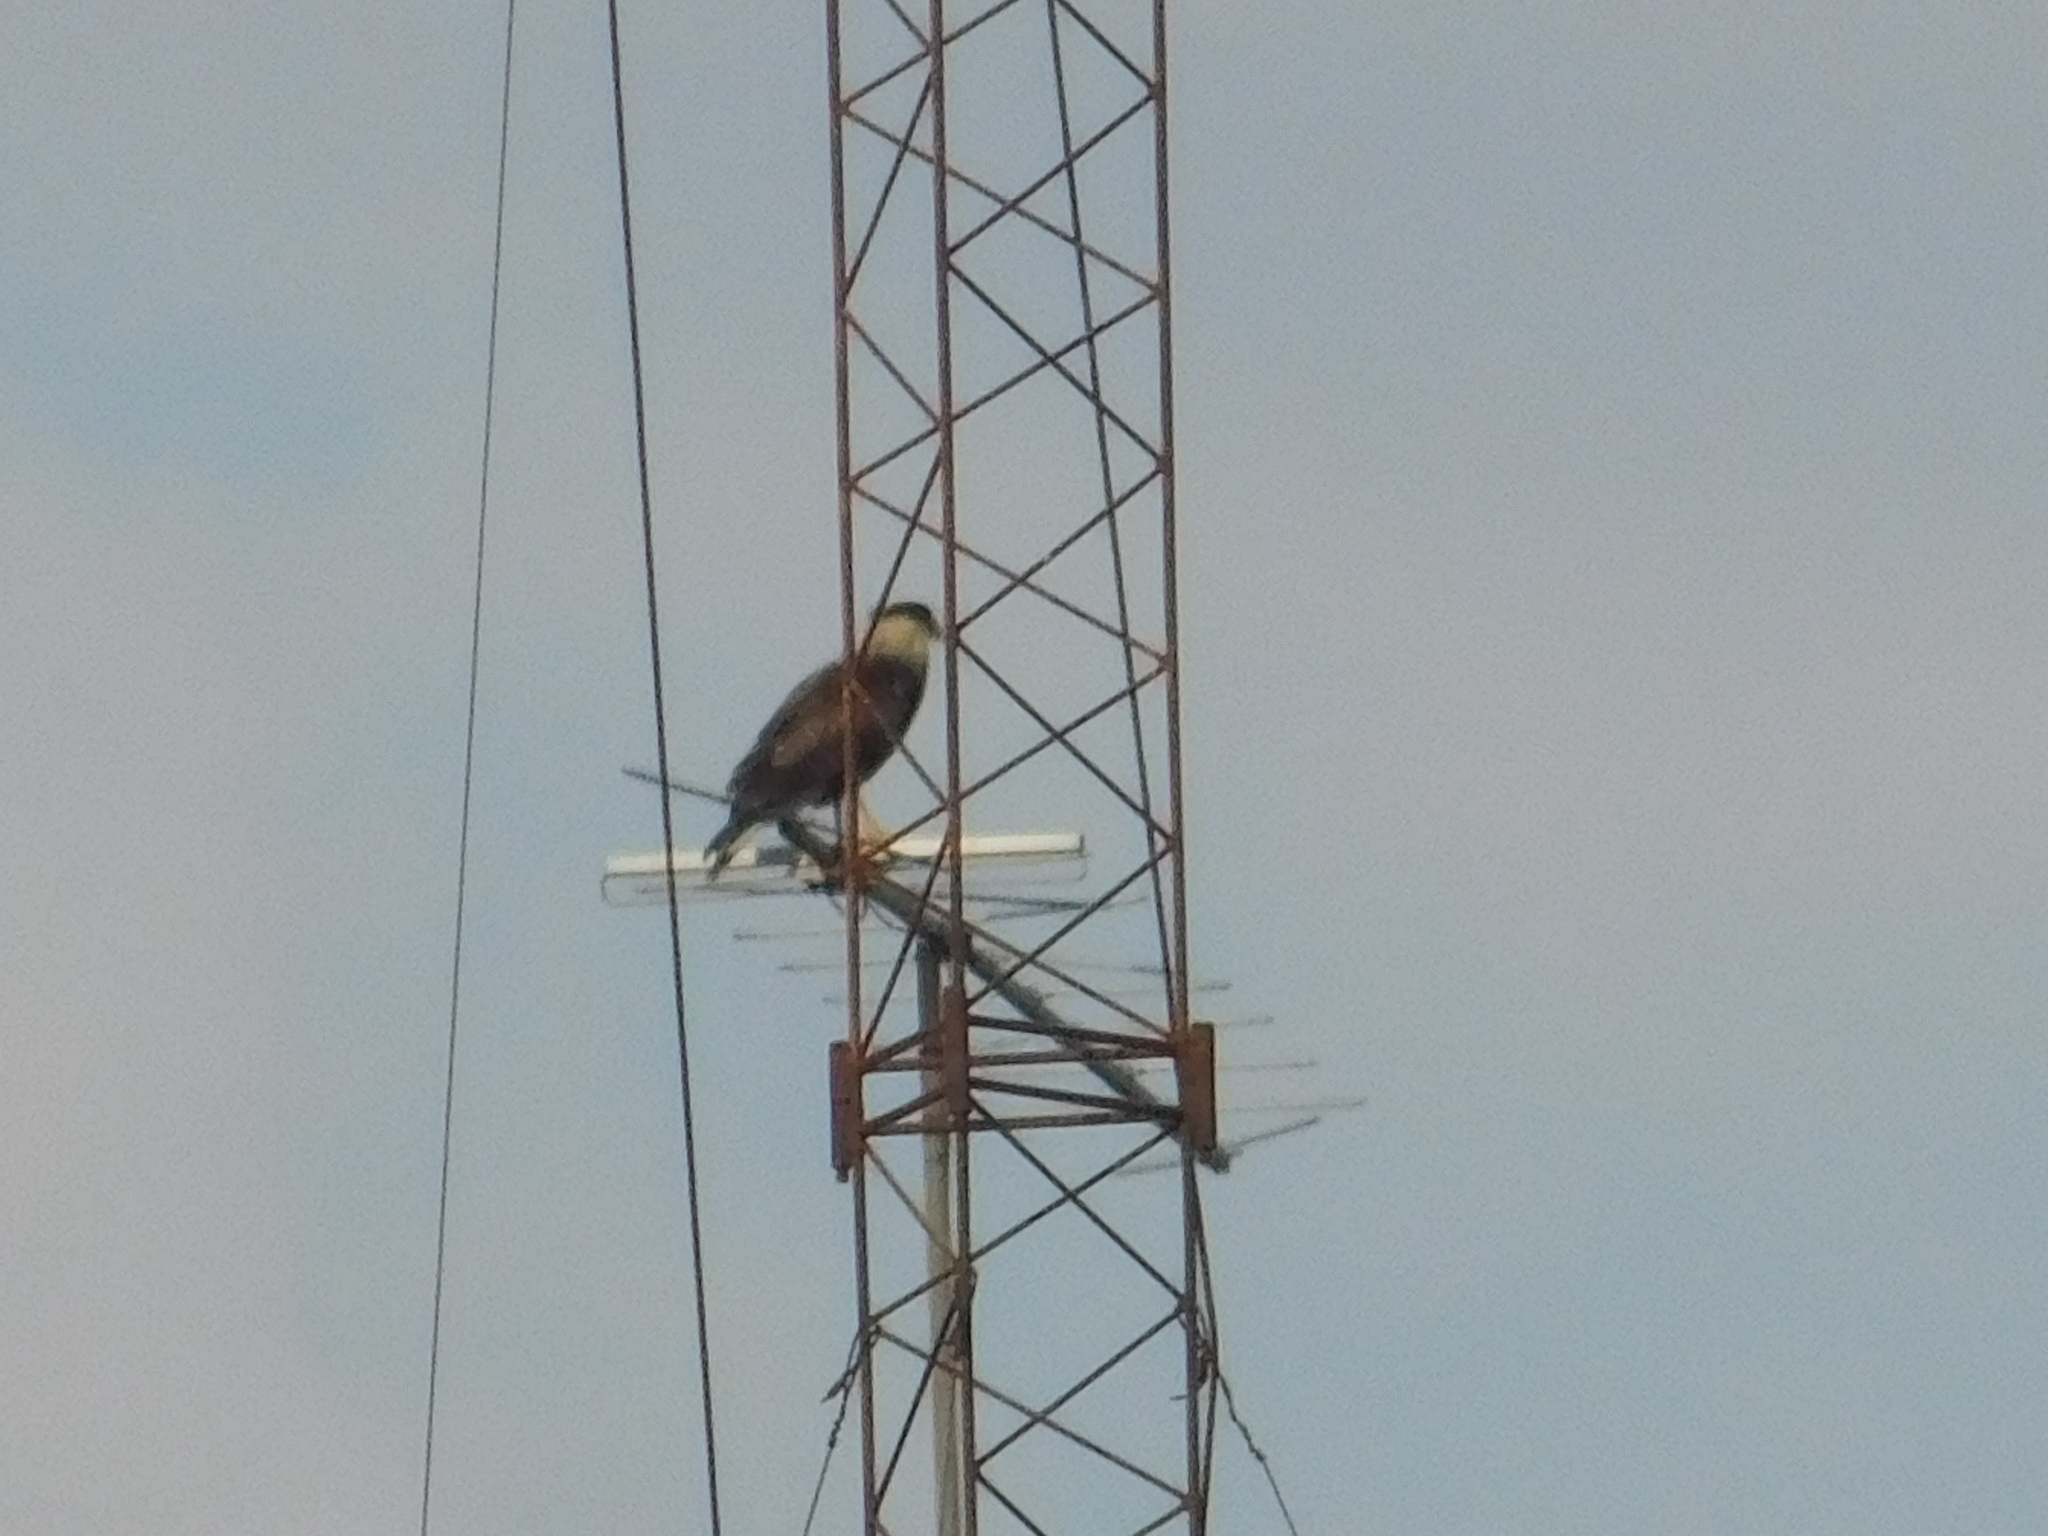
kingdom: Animalia
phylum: Chordata
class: Aves
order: Falconiformes
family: Falconidae
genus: Caracara
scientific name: Caracara plancus
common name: Southern caracara
